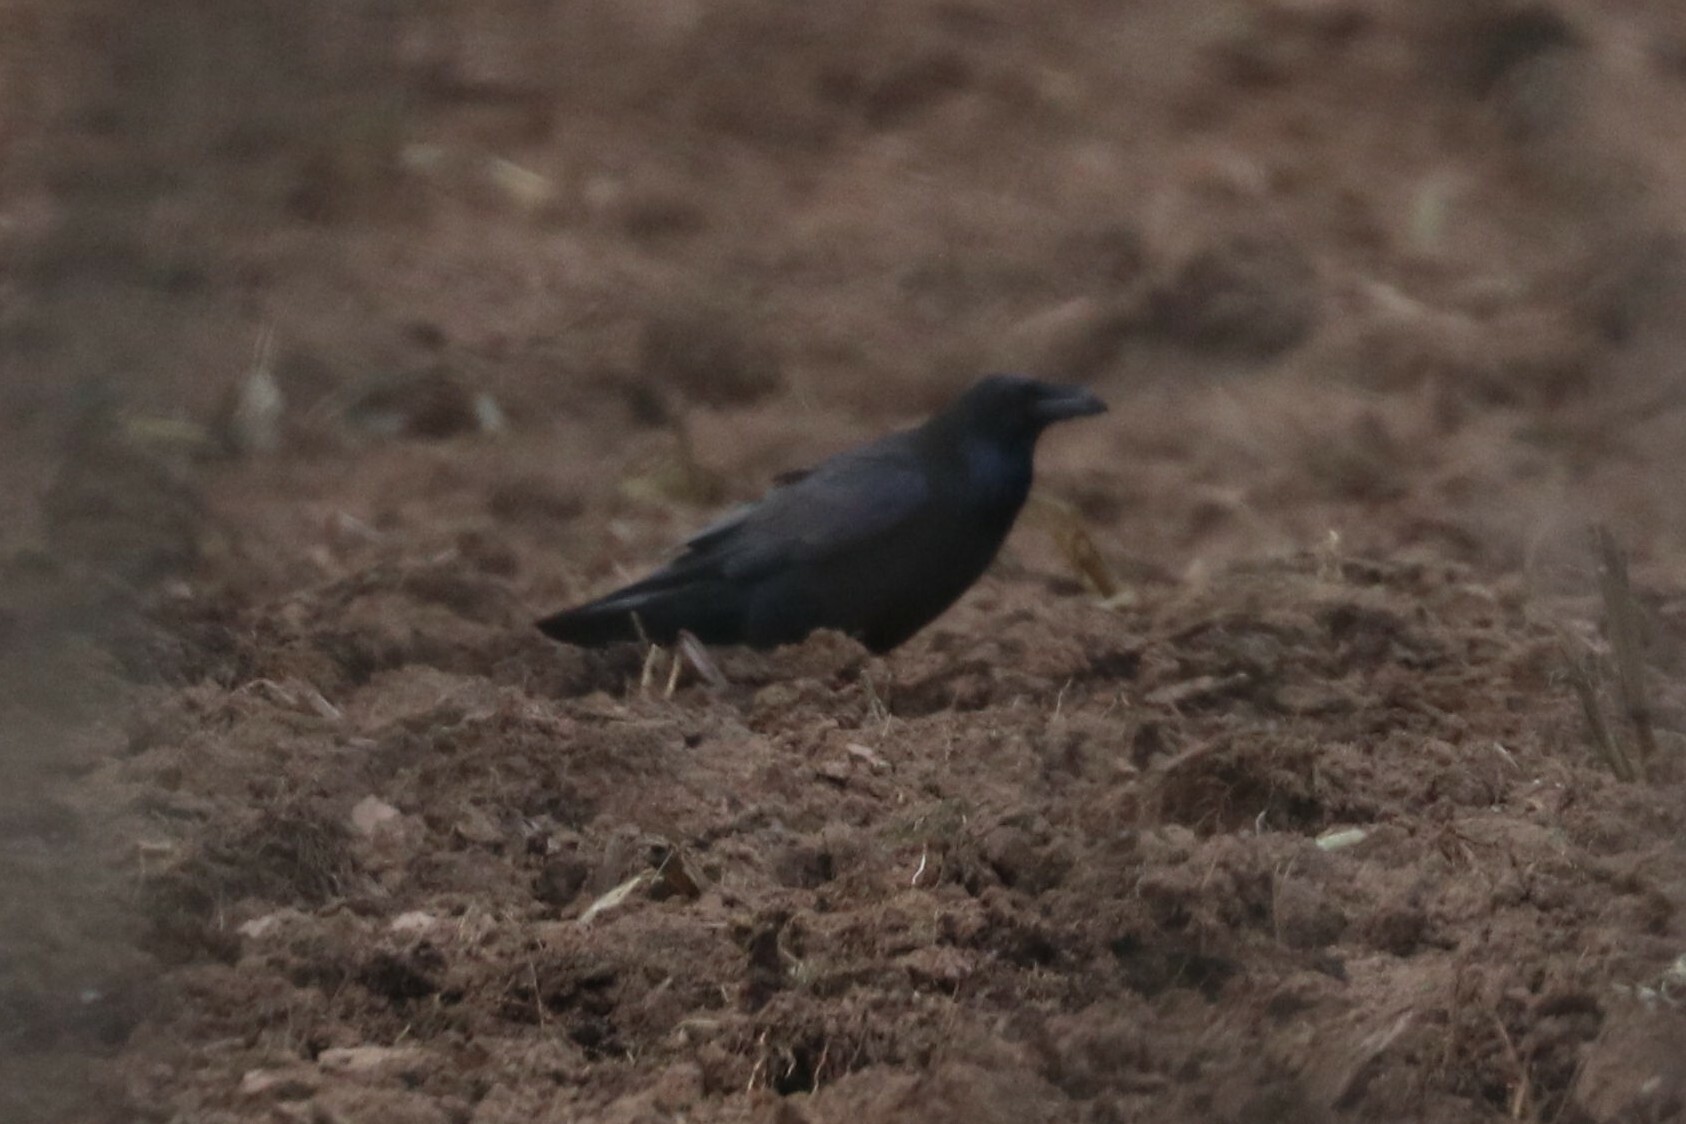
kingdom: Animalia
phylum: Chordata
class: Aves
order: Passeriformes
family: Corvidae
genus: Corvus
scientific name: Corvus corax
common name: Common raven
